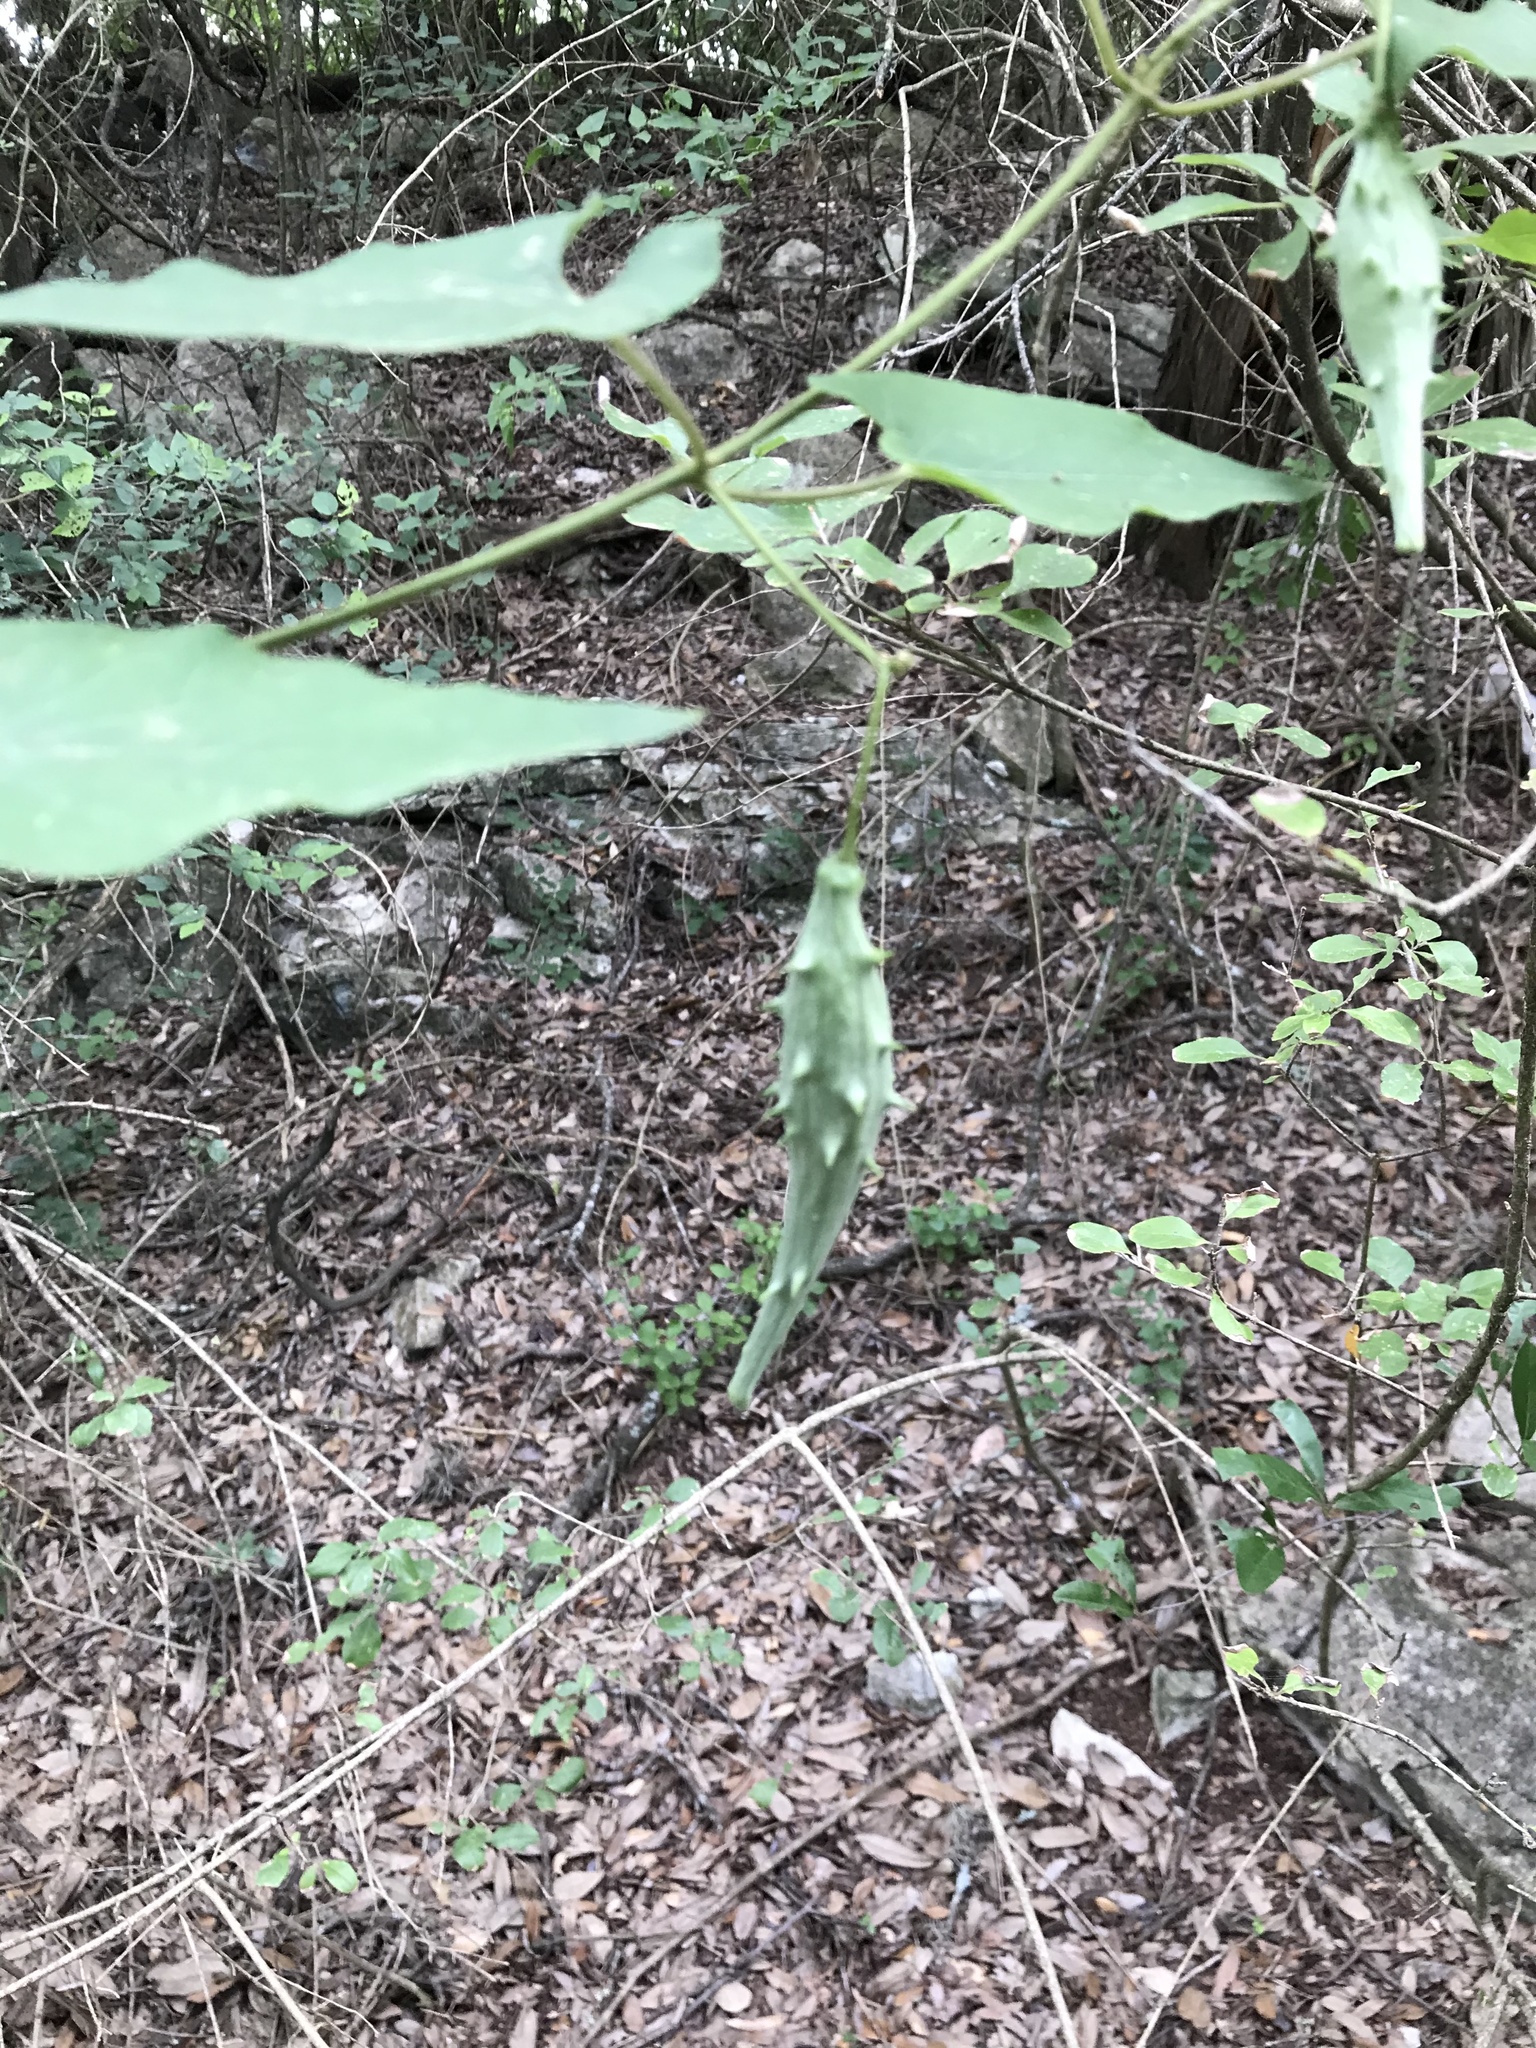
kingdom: Plantae
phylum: Tracheophyta
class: Magnoliopsida
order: Gentianales
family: Apocynaceae
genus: Dictyanthus
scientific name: Dictyanthus reticulatus
